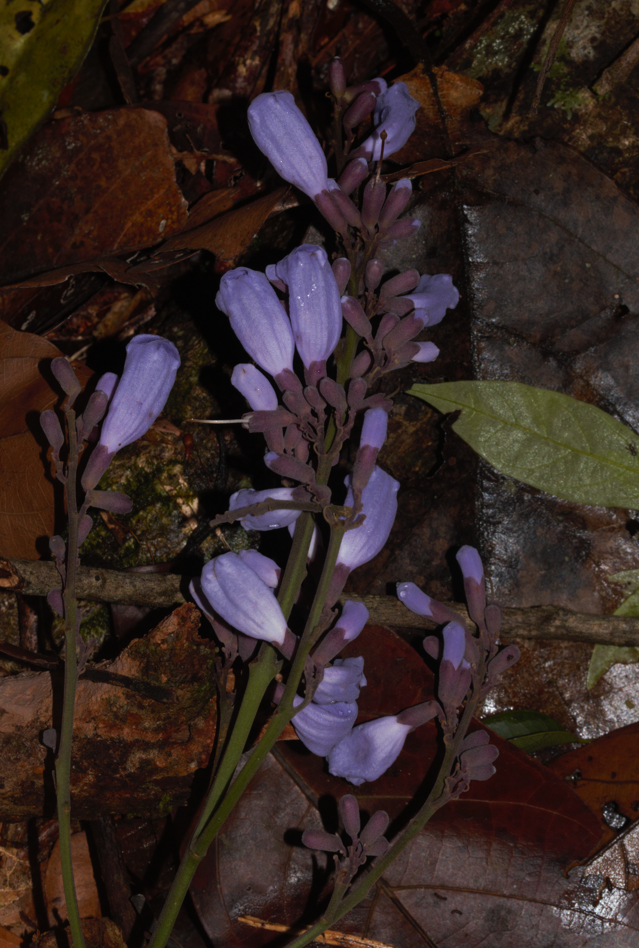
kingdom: Plantae
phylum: Tracheophyta
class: Magnoliopsida
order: Lamiales
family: Bignoniaceae
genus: Jacaranda
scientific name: Jacaranda copaia
